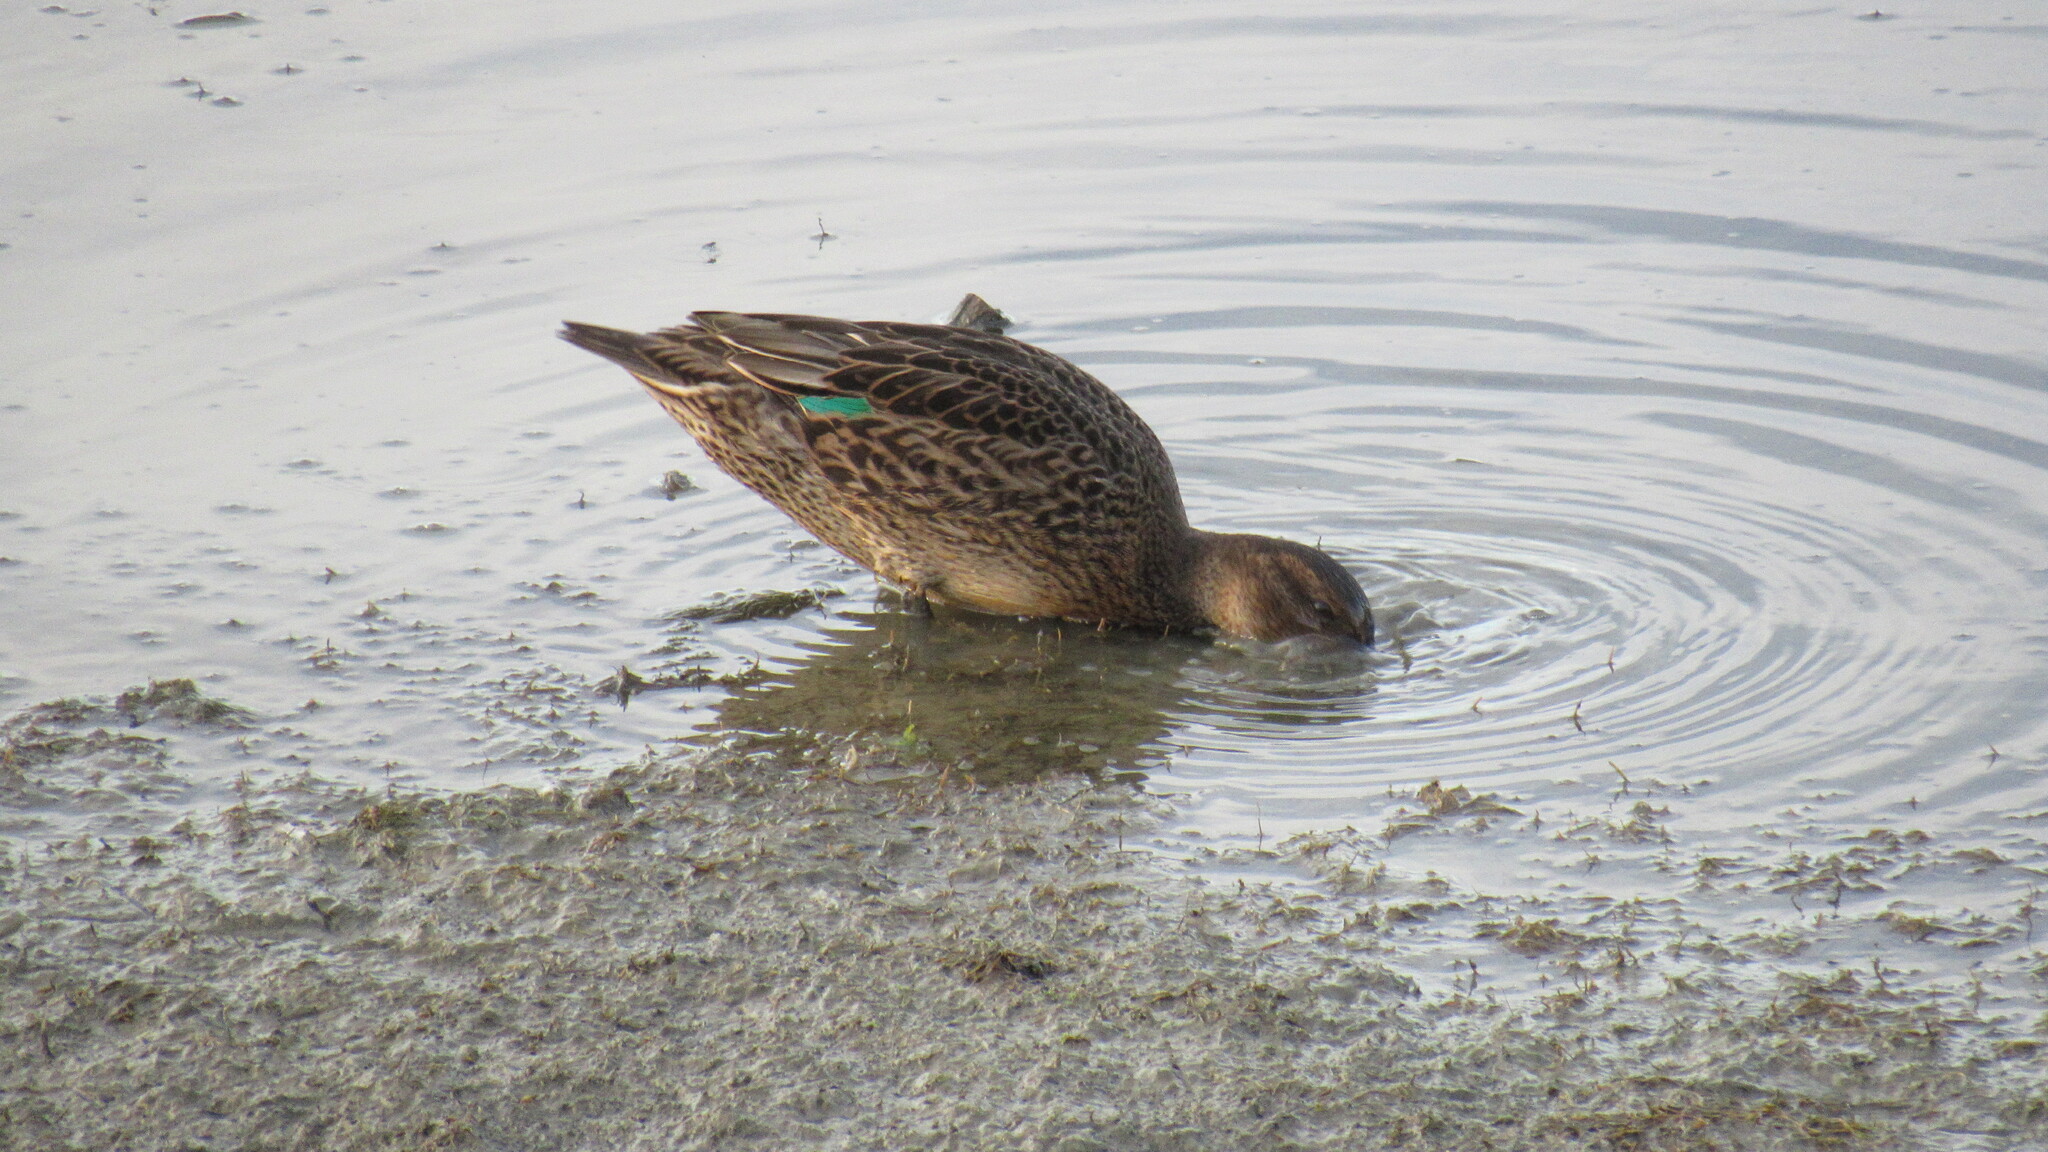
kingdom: Animalia
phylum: Chordata
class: Aves
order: Anseriformes
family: Anatidae
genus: Anas
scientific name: Anas crecca
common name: Eurasian teal
